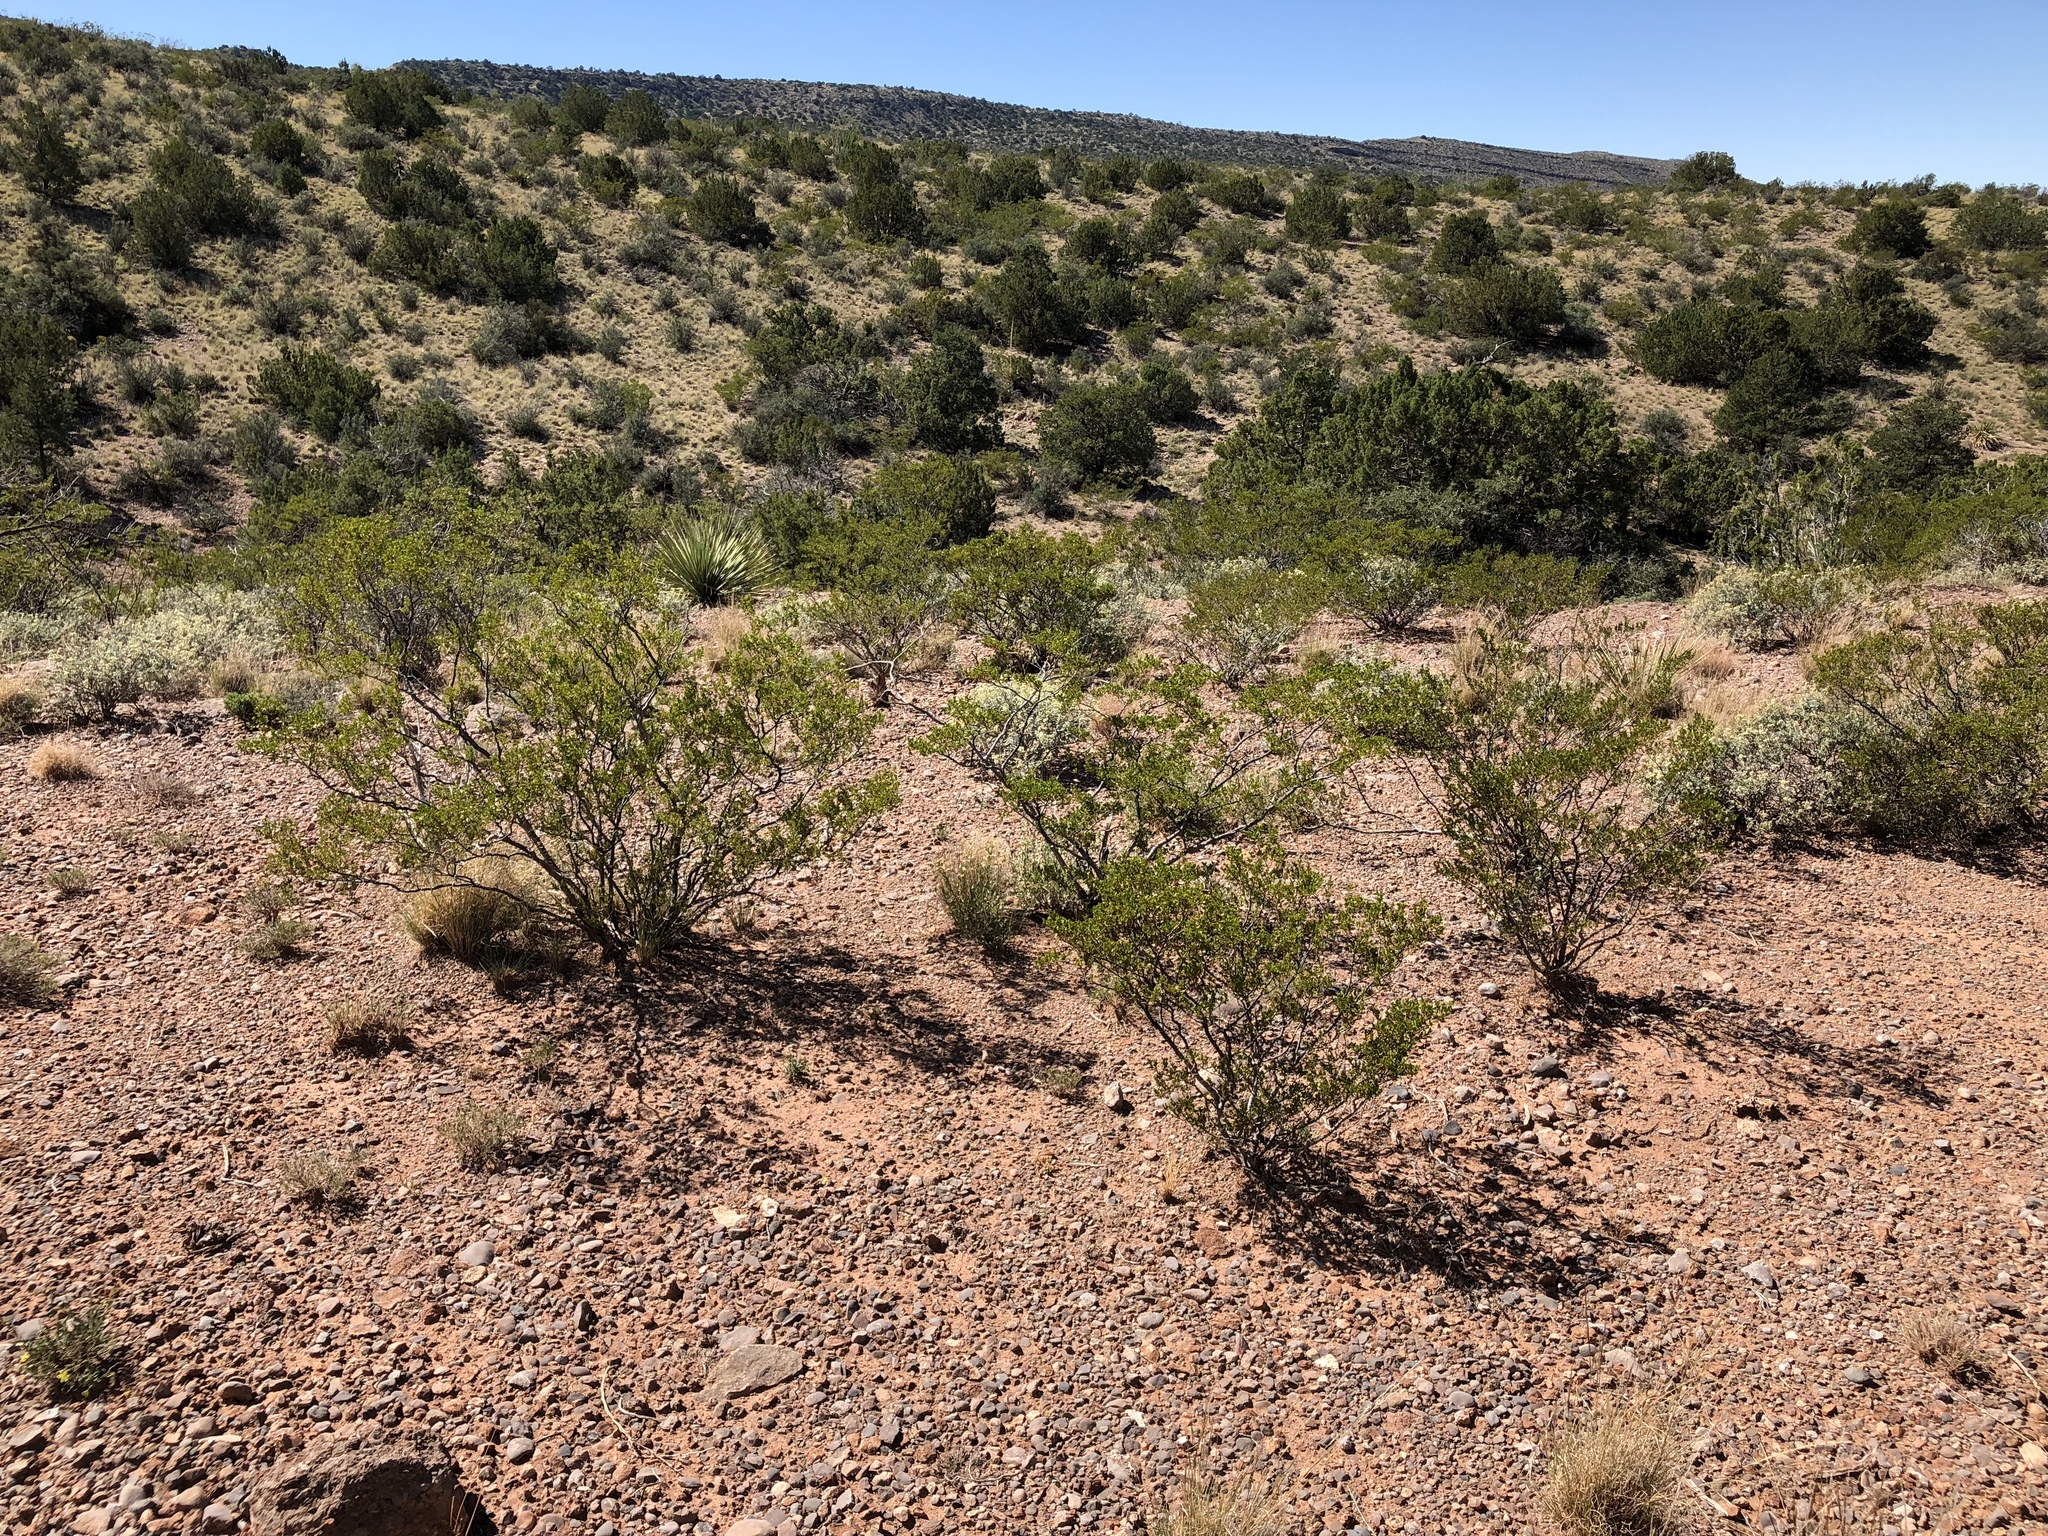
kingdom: Plantae
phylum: Tracheophyta
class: Magnoliopsida
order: Zygophyllales
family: Zygophyllaceae
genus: Larrea
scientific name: Larrea tridentata
